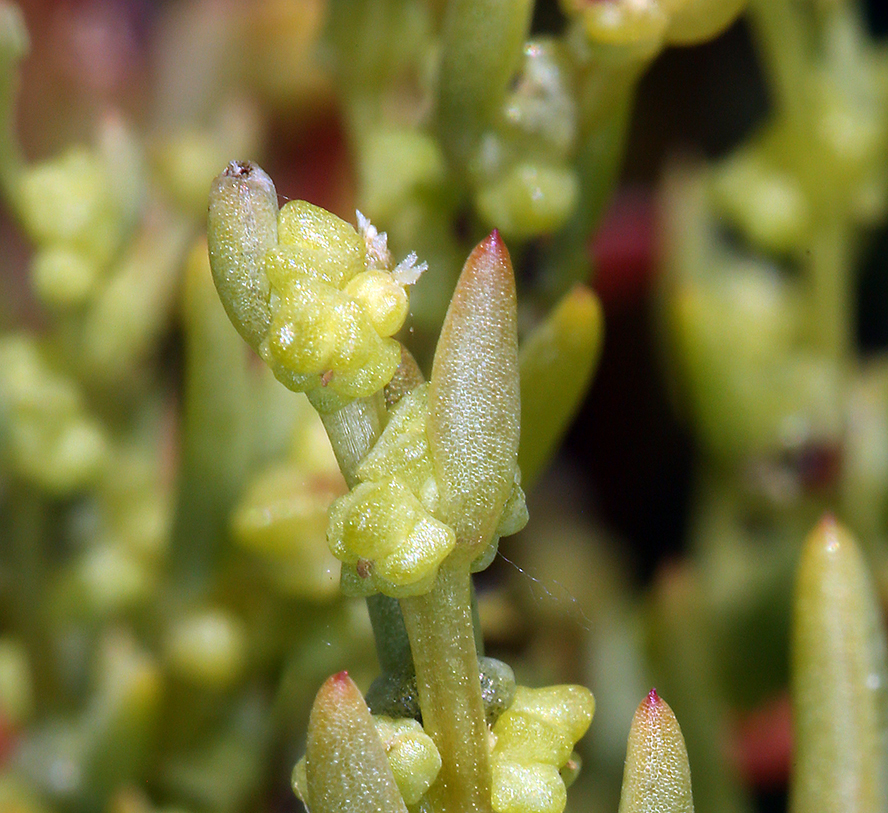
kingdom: Plantae
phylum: Tracheophyta
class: Magnoliopsida
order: Caryophyllales
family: Amaranthaceae
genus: Suaeda
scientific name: Suaeda occidentalis
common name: Western seepweed
